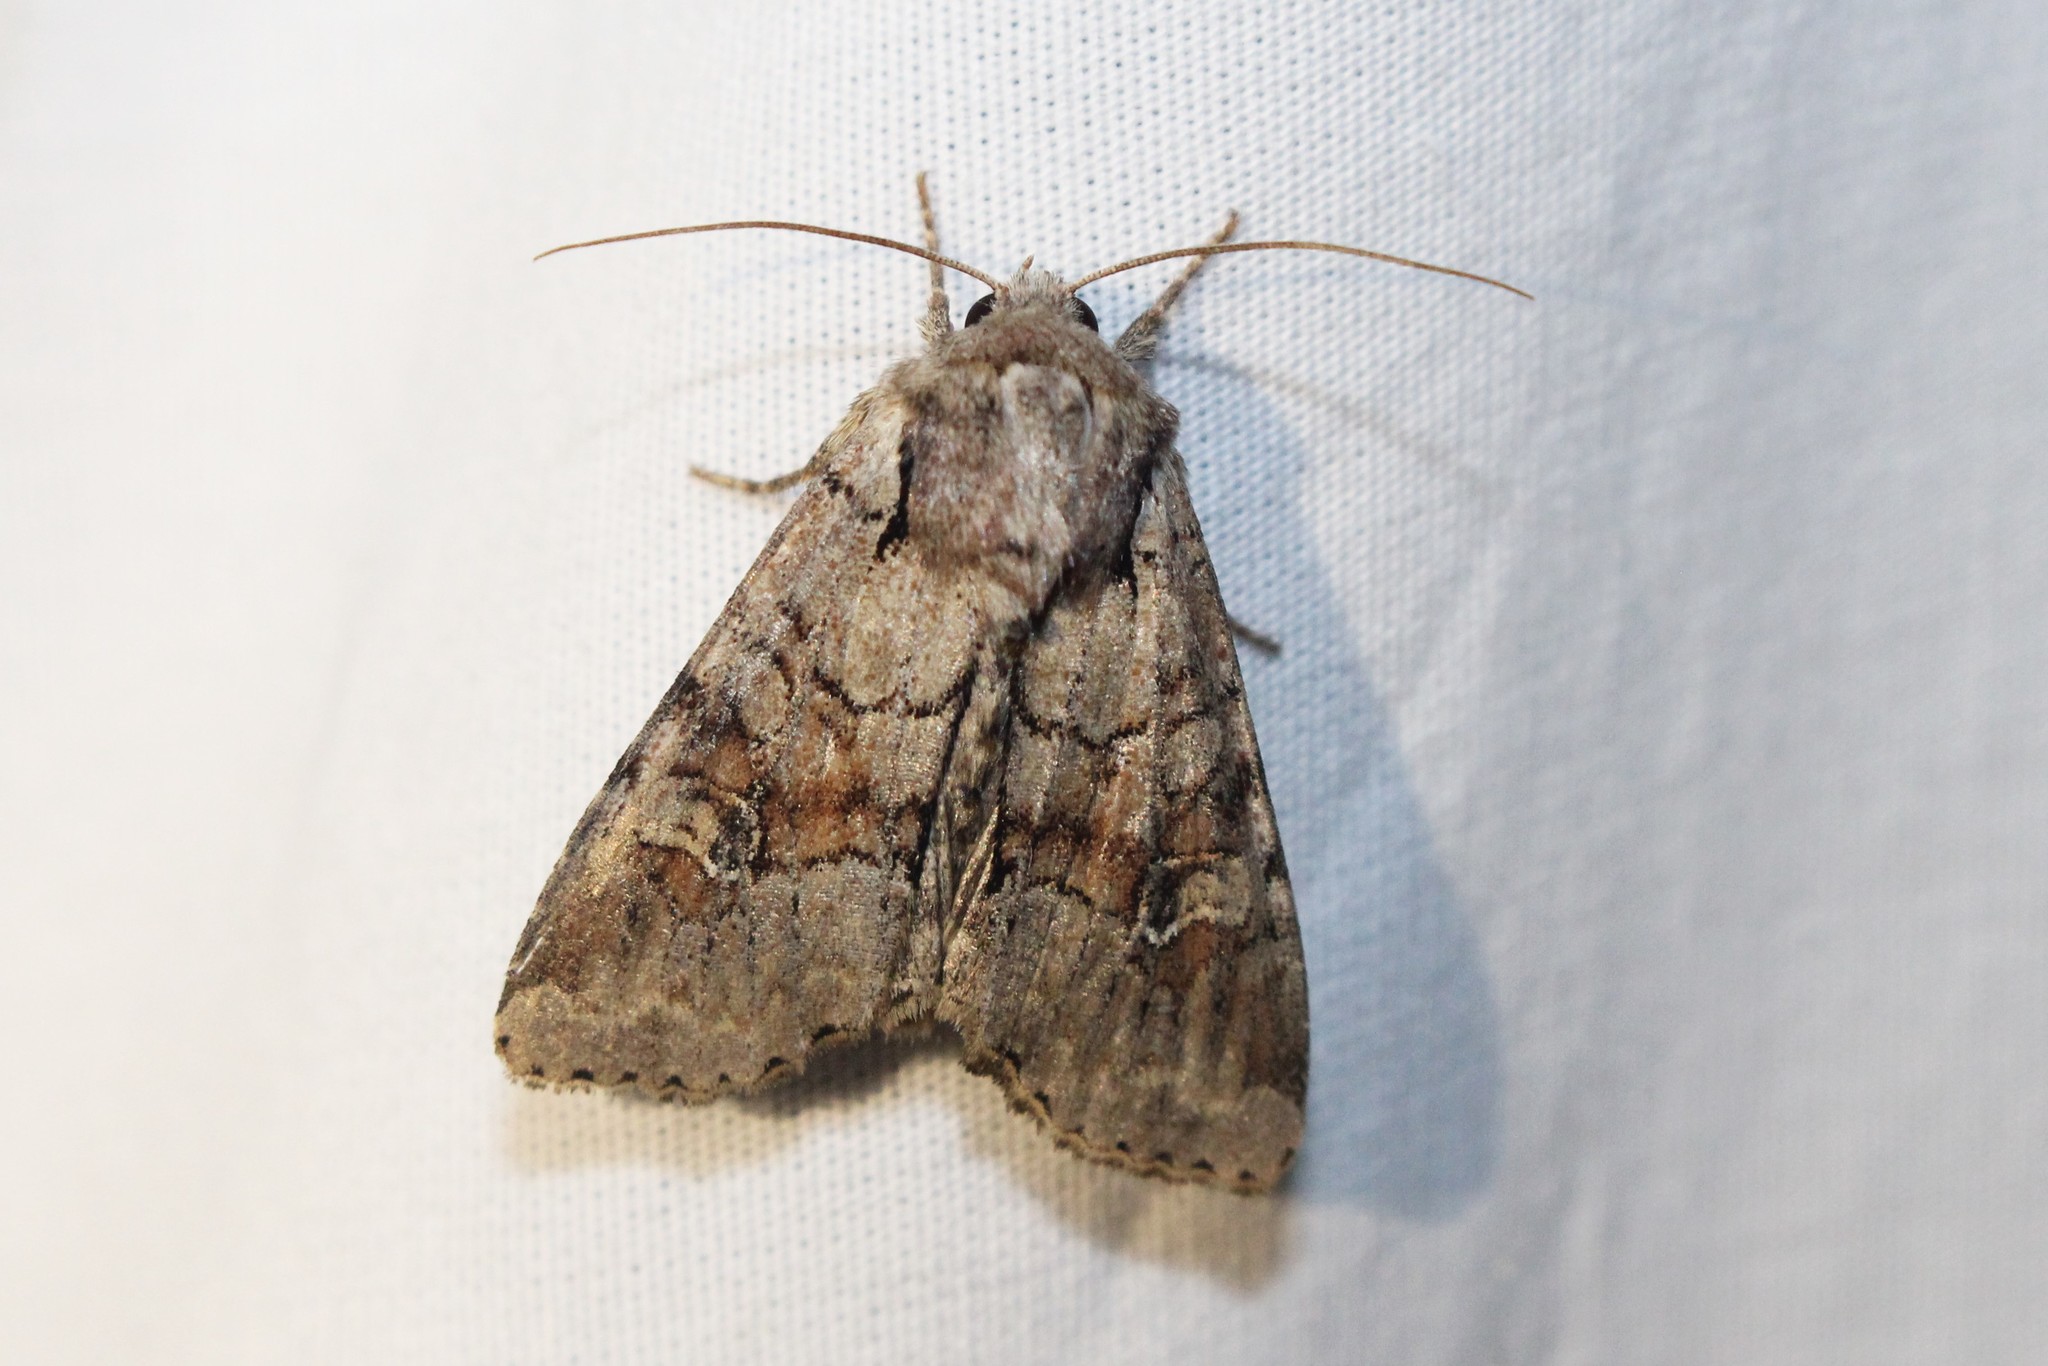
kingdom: Animalia
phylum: Arthropoda
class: Insecta
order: Lepidoptera
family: Noctuidae
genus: Apamea
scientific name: Apamea sordens
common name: Rustic shoulder-knot
